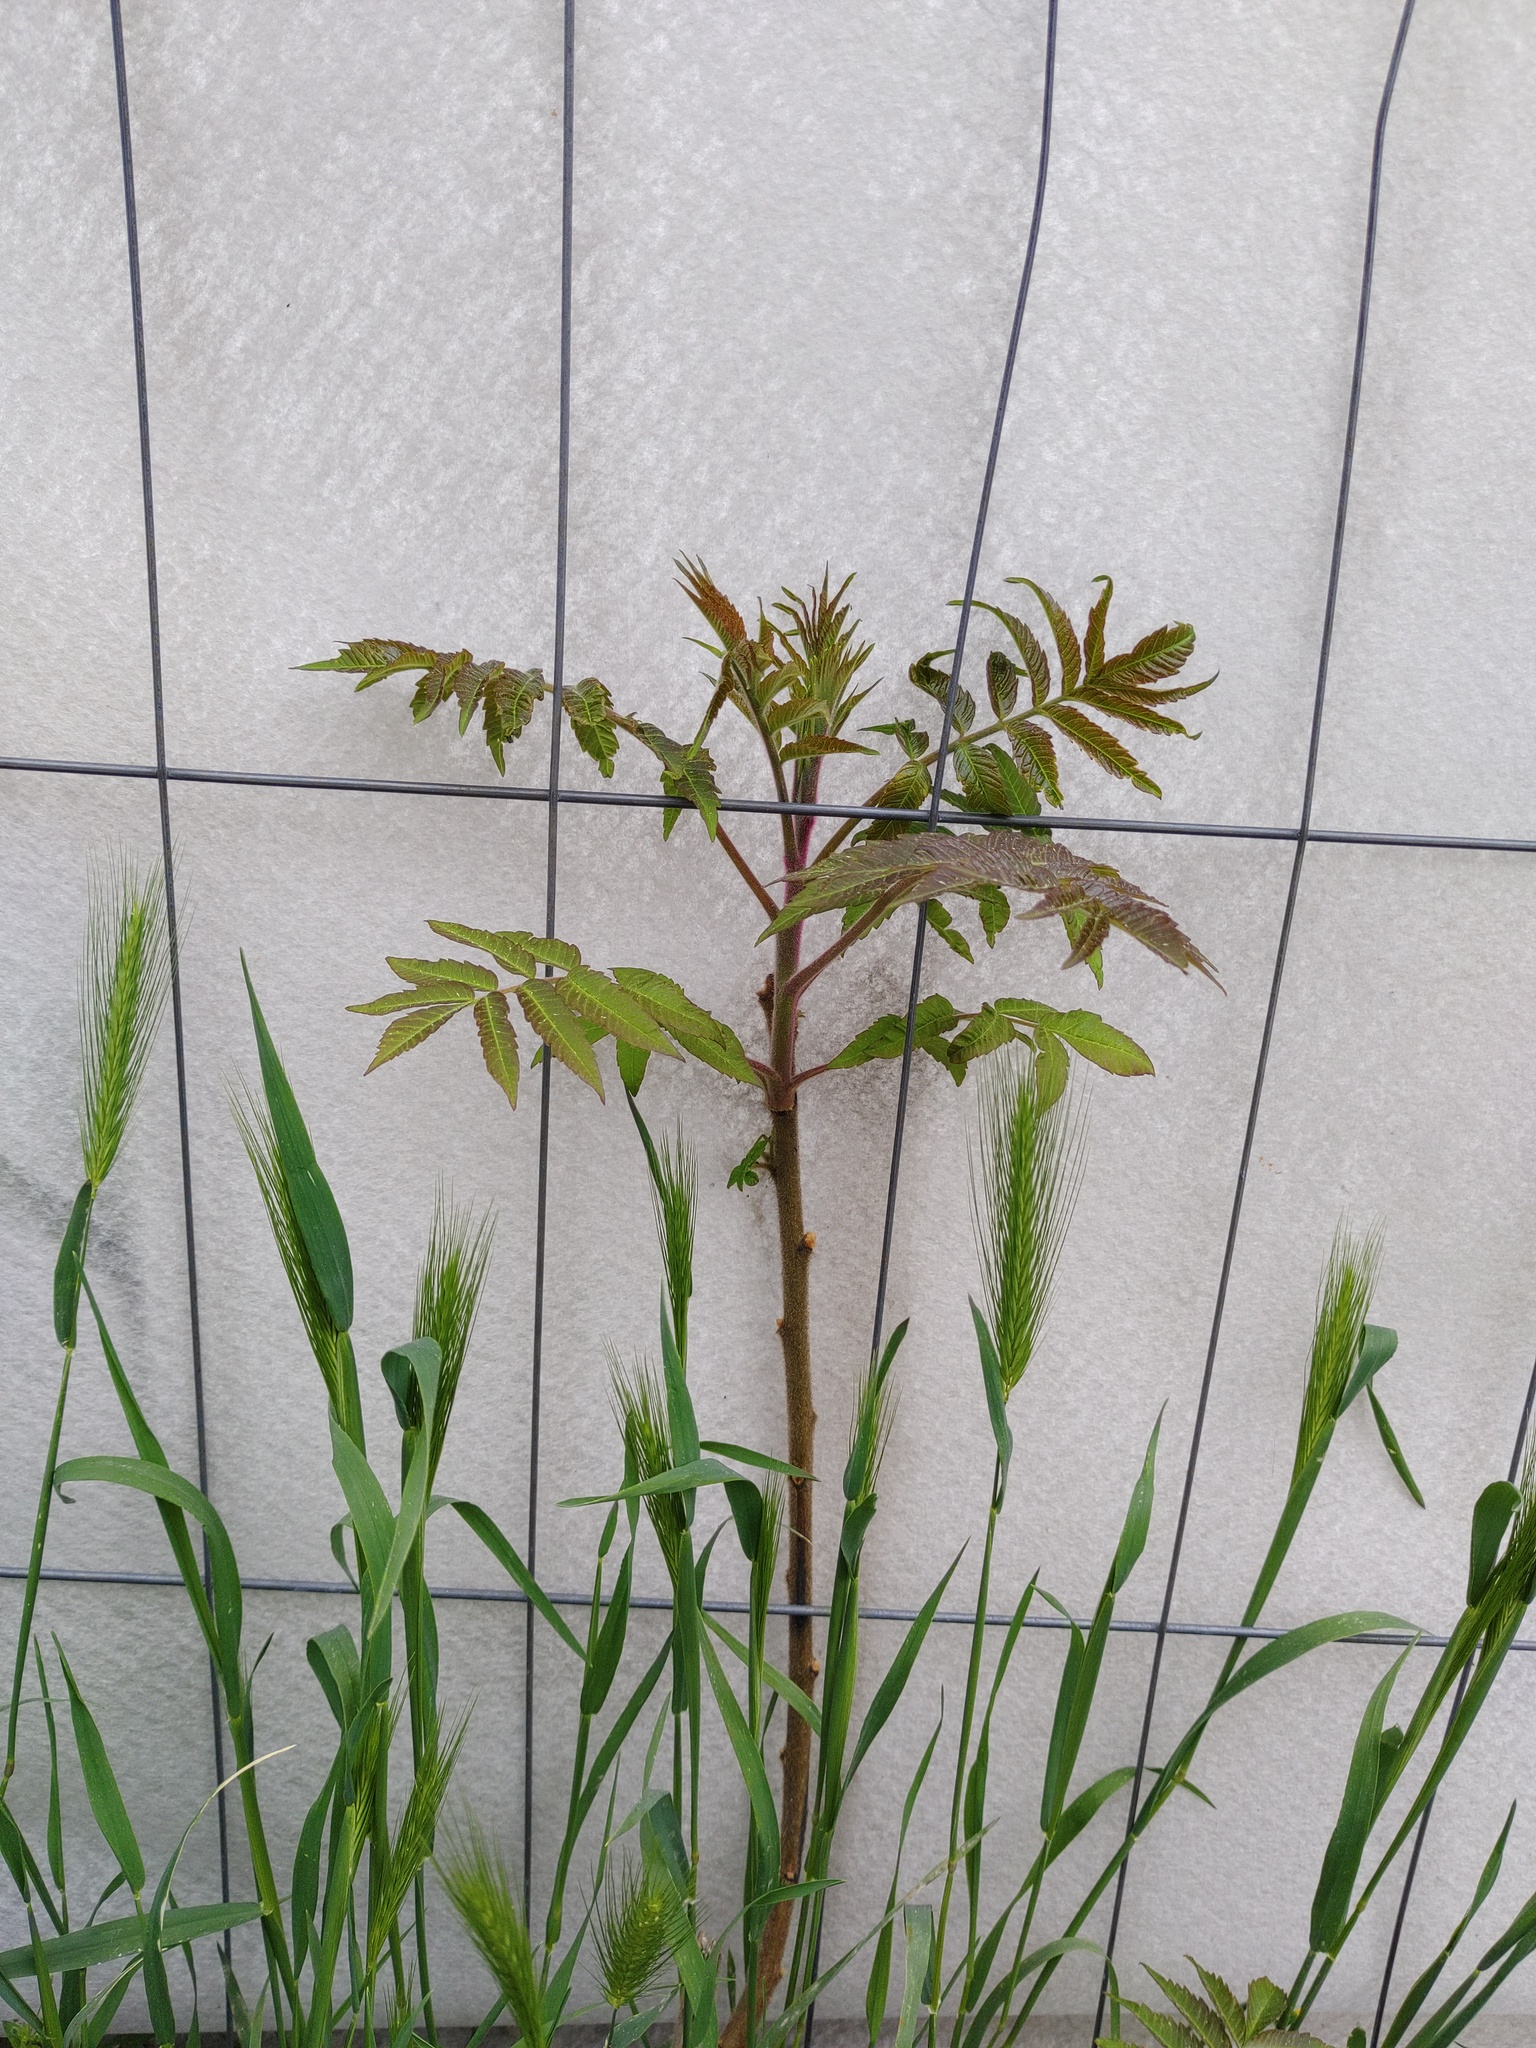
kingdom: Plantae
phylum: Tracheophyta
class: Magnoliopsida
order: Sapindales
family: Anacardiaceae
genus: Rhus
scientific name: Rhus typhina
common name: Staghorn sumac
